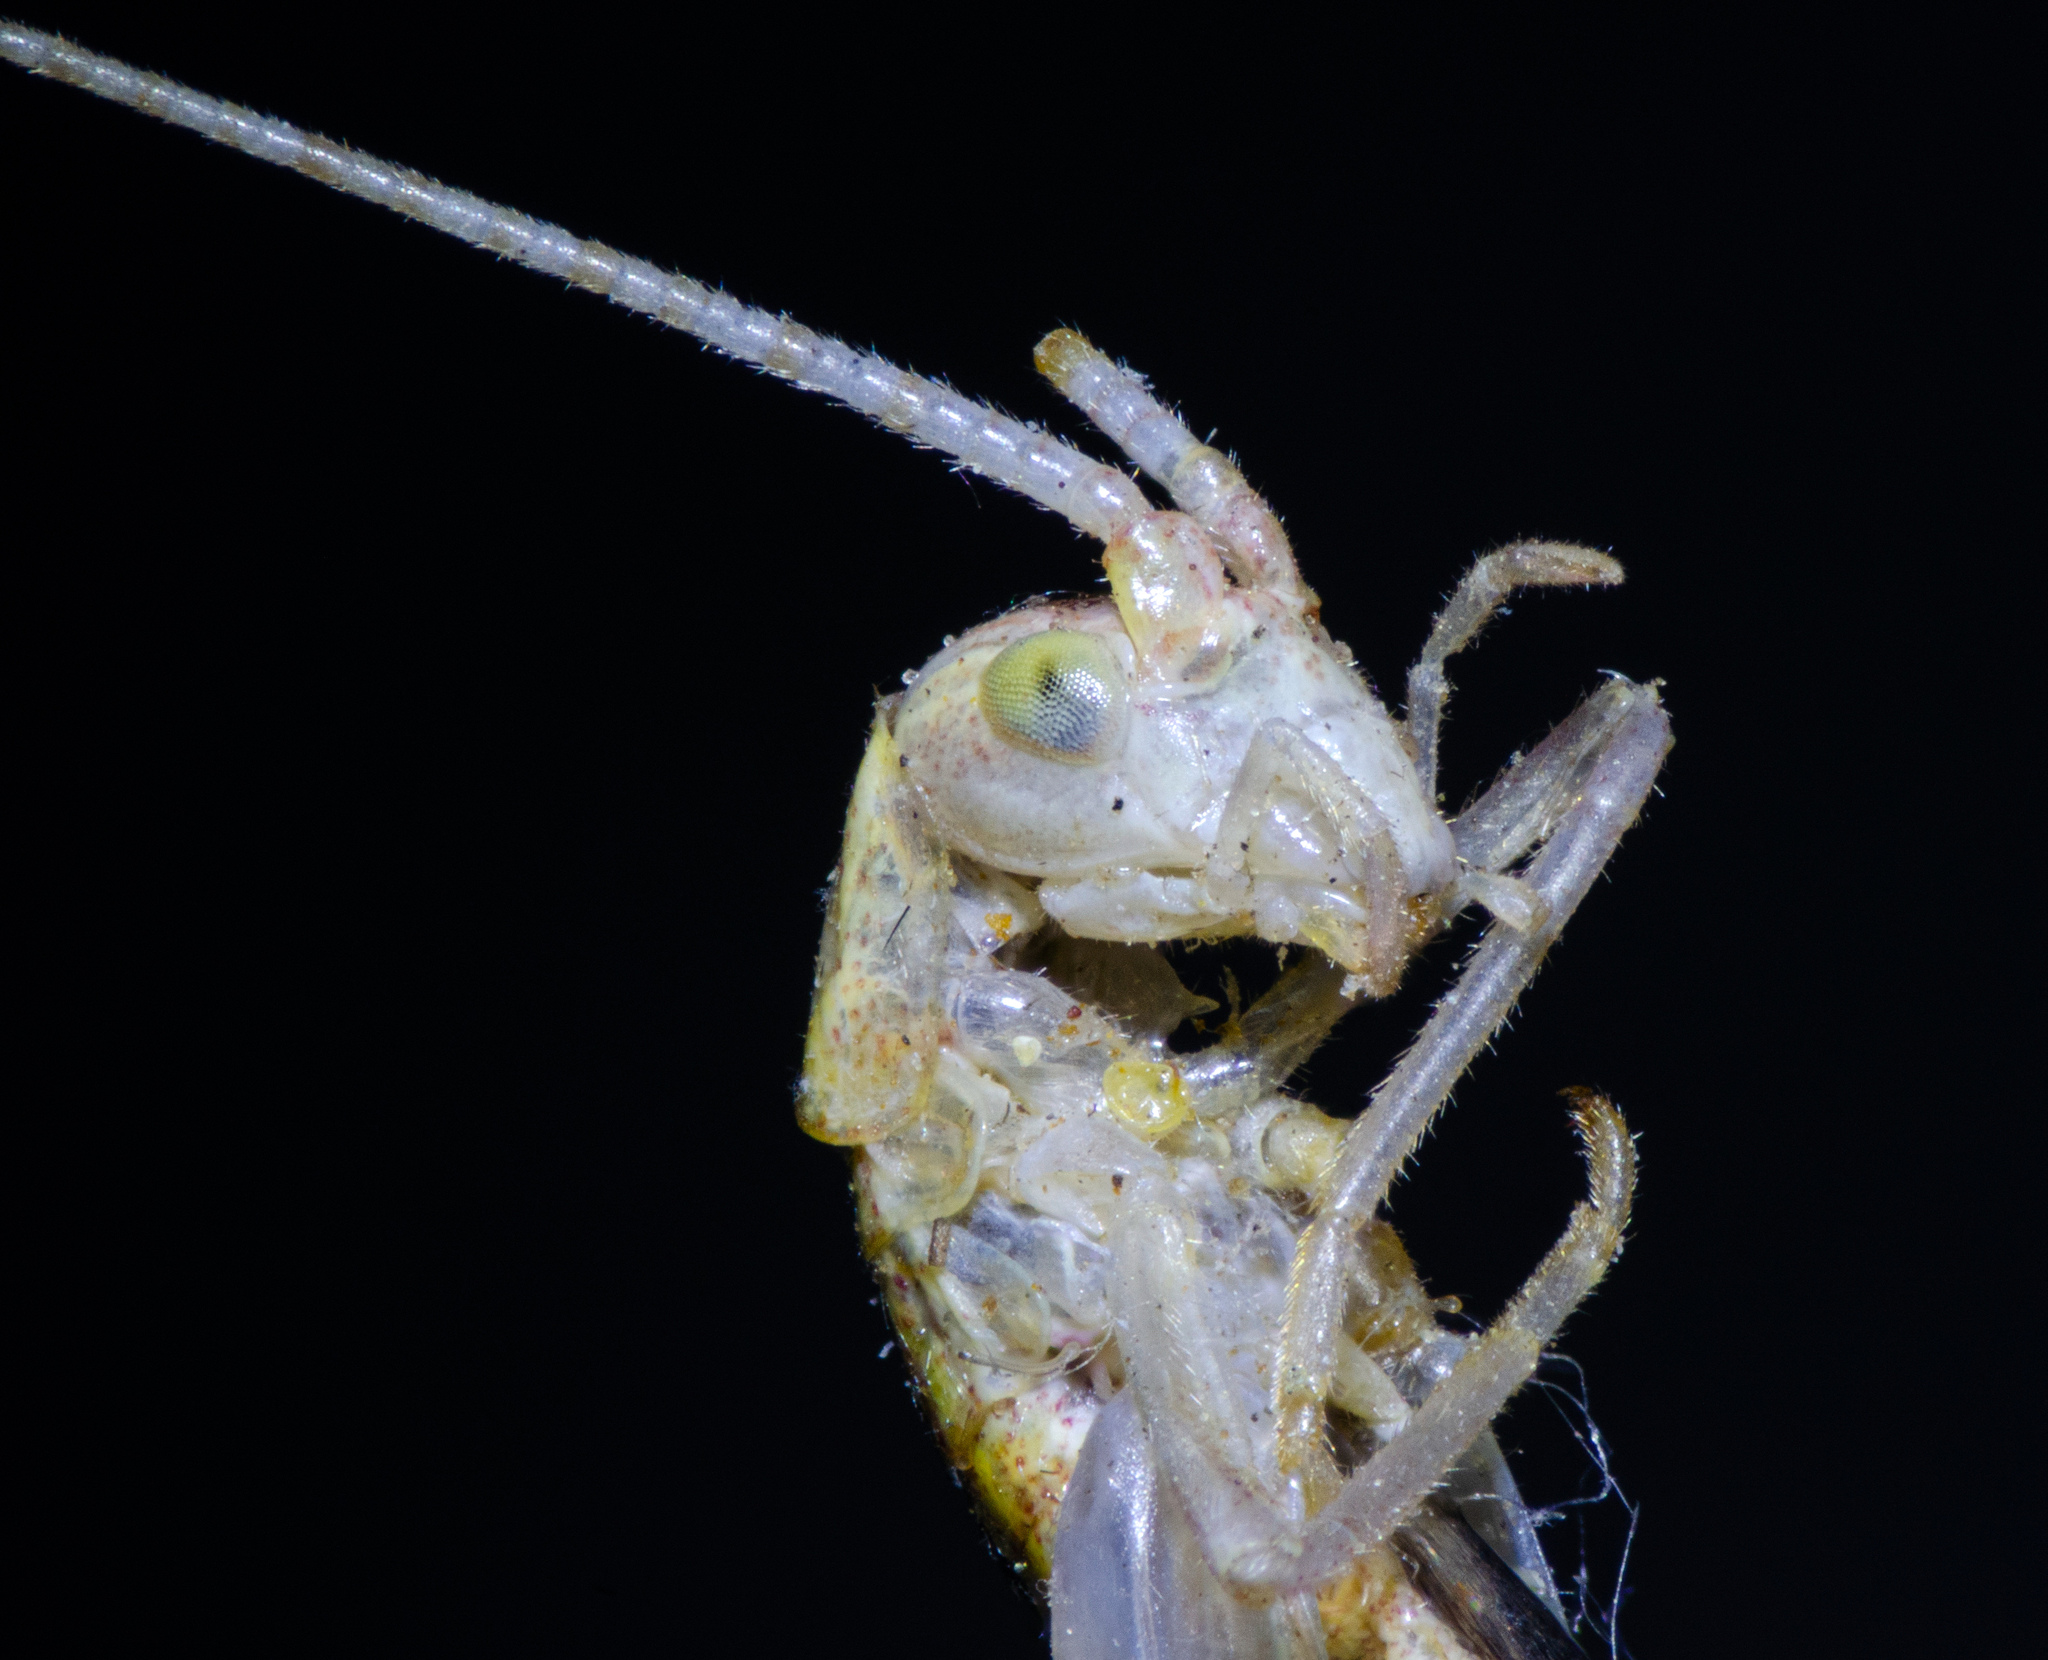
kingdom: Animalia
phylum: Arthropoda
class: Insecta
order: Orthoptera
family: Gryllidae
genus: Oecanthus
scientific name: Oecanthus californicus
